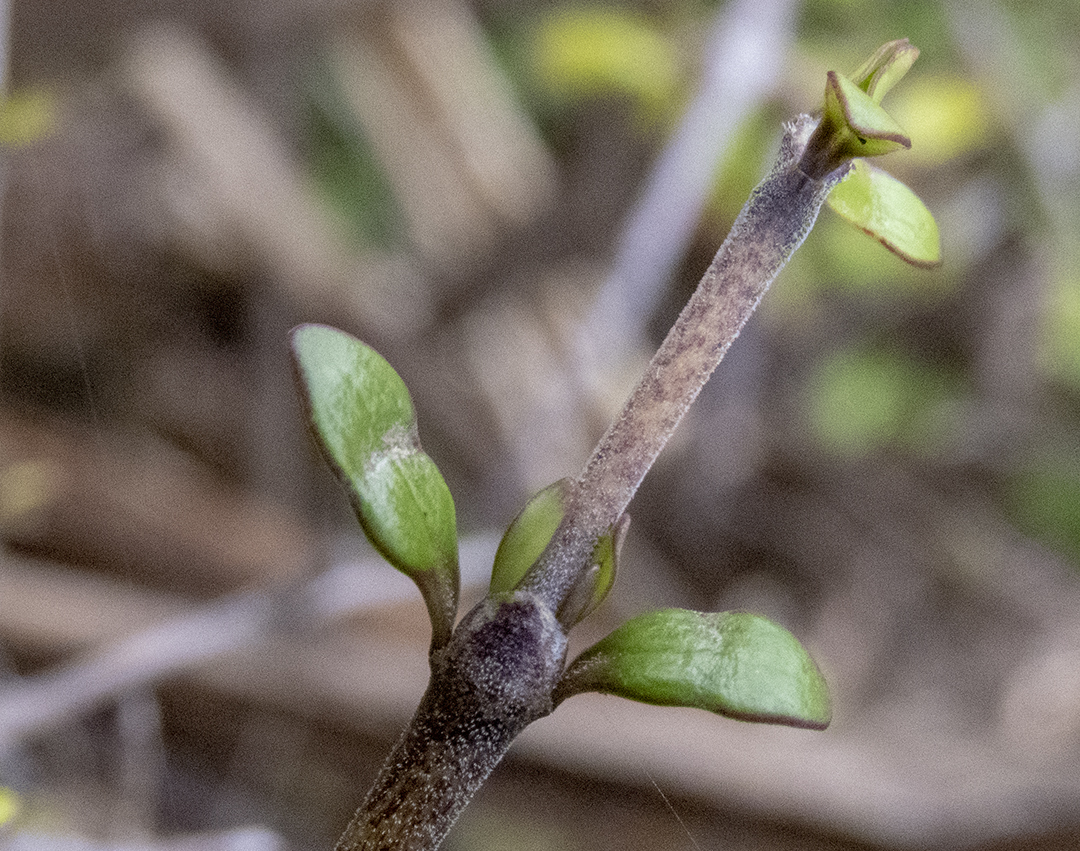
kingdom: Plantae
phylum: Tracheophyta
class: Magnoliopsida
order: Gentianales
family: Rubiaceae
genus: Coprosma
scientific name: Coprosma propinqua
